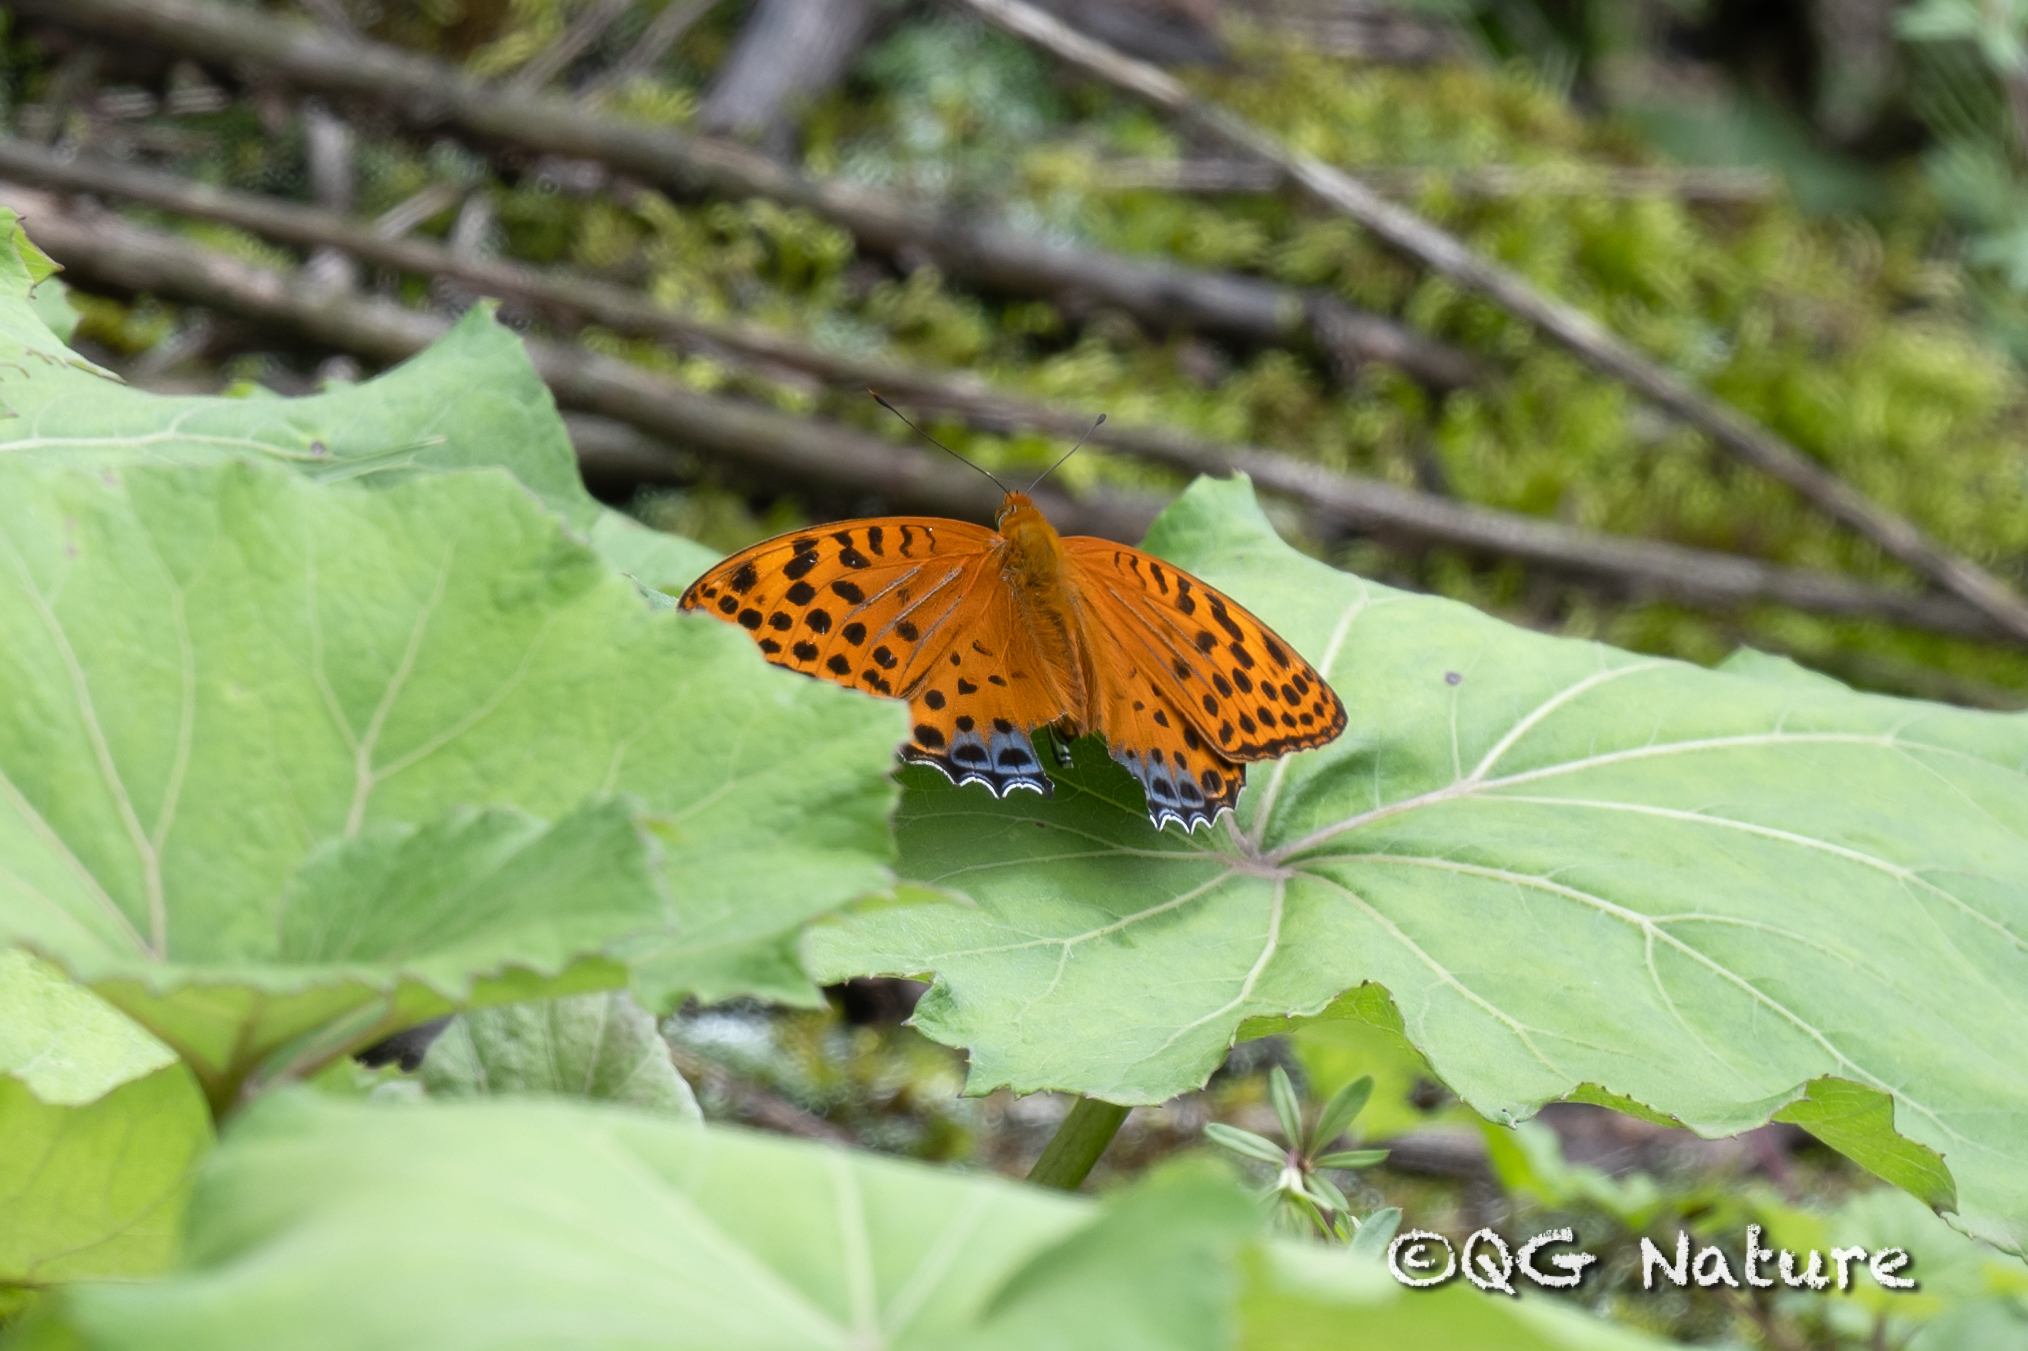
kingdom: Animalia
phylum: Arthropoda
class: Insecta
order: Lepidoptera
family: Nymphalidae
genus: Childrena
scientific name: Childrena childreni
